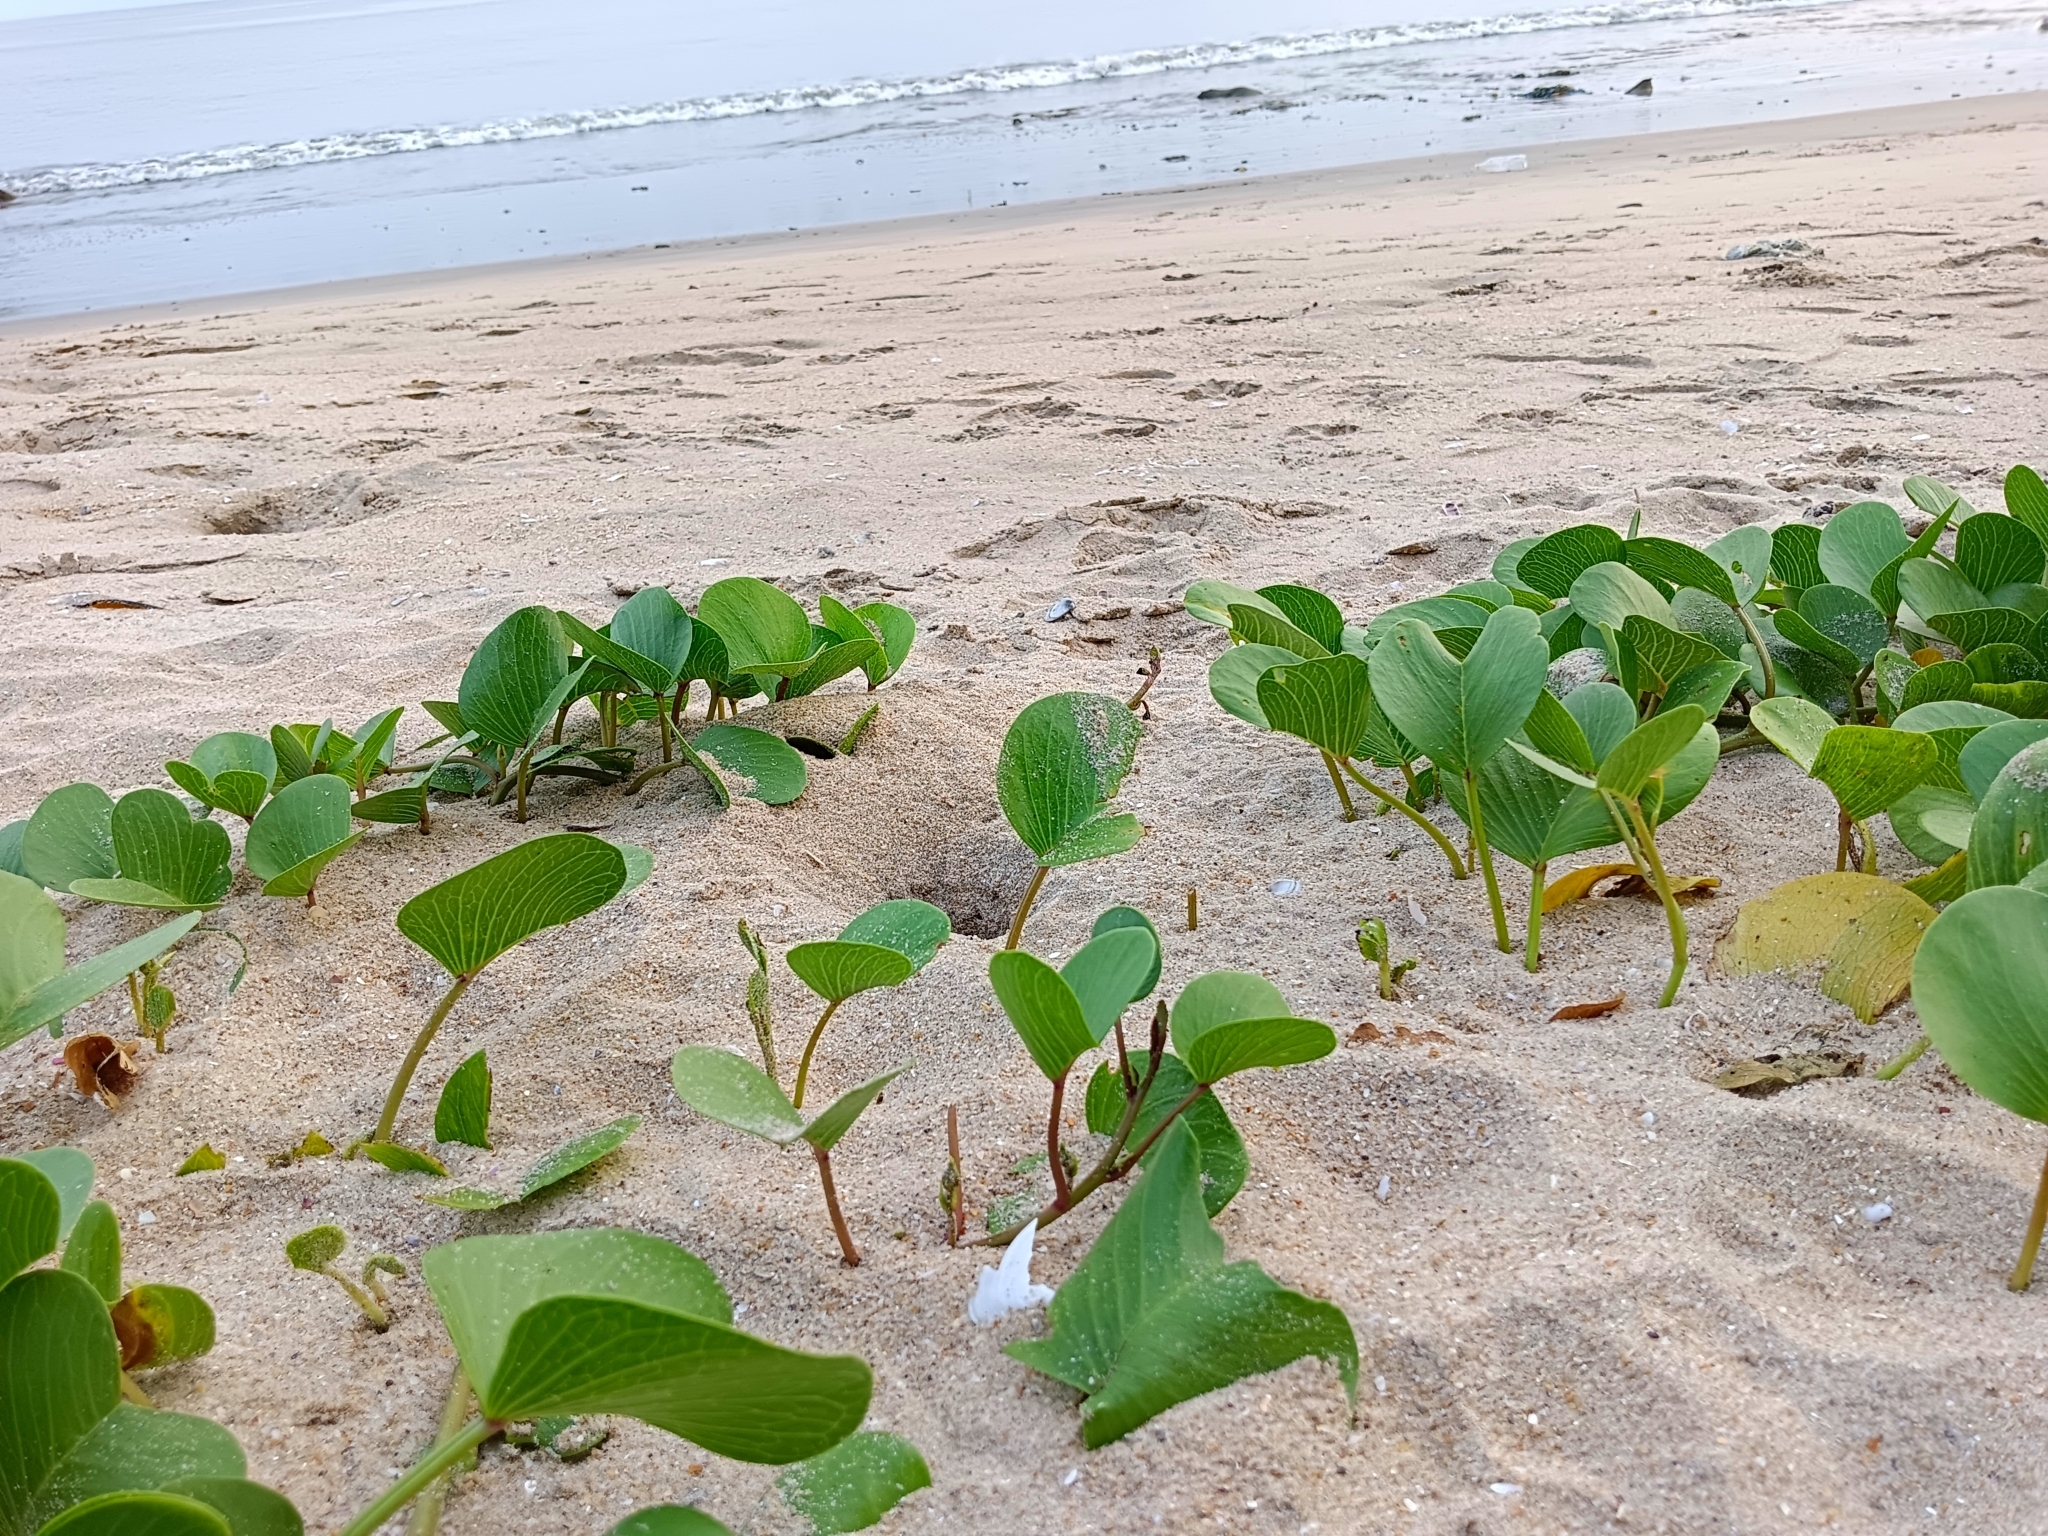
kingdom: Plantae
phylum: Tracheophyta
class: Magnoliopsida
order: Solanales
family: Convolvulaceae
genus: Ipomoea
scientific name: Ipomoea pes-caprae
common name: Beach morning glory
